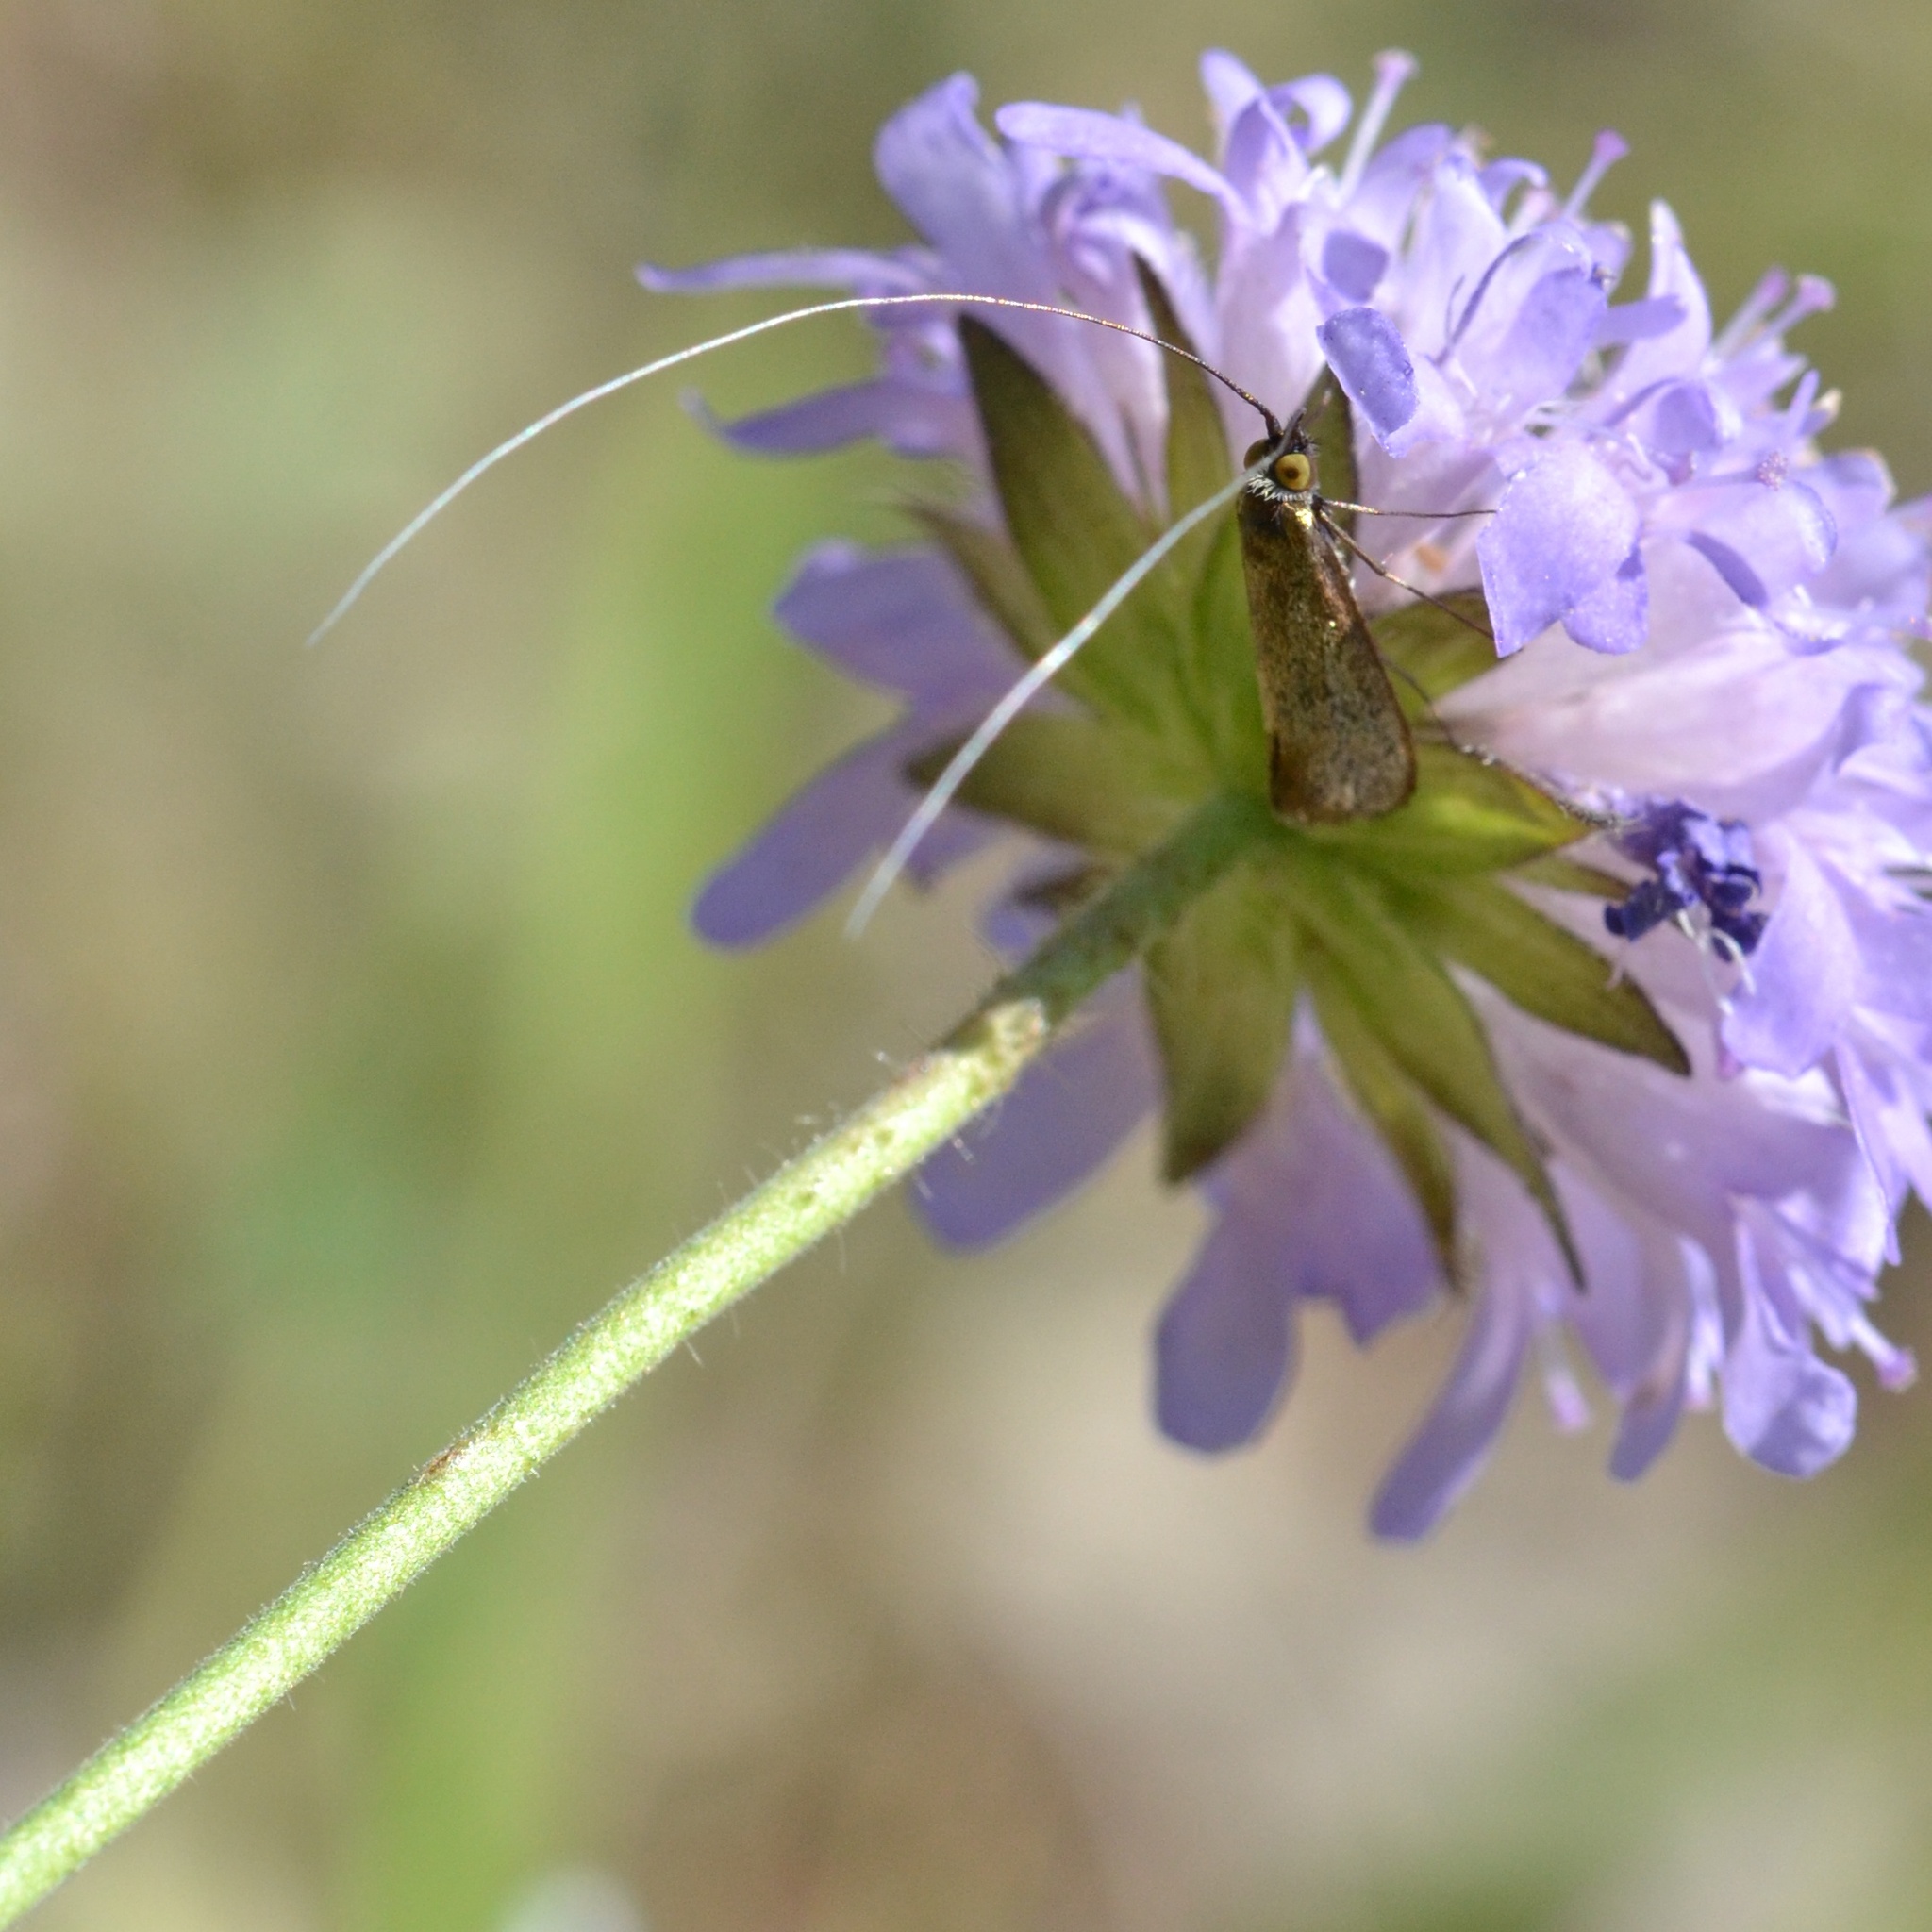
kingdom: Animalia
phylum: Arthropoda
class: Insecta
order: Lepidoptera
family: Adelidae
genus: Nemophora
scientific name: Nemophora metallica
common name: Brassy long-horn
